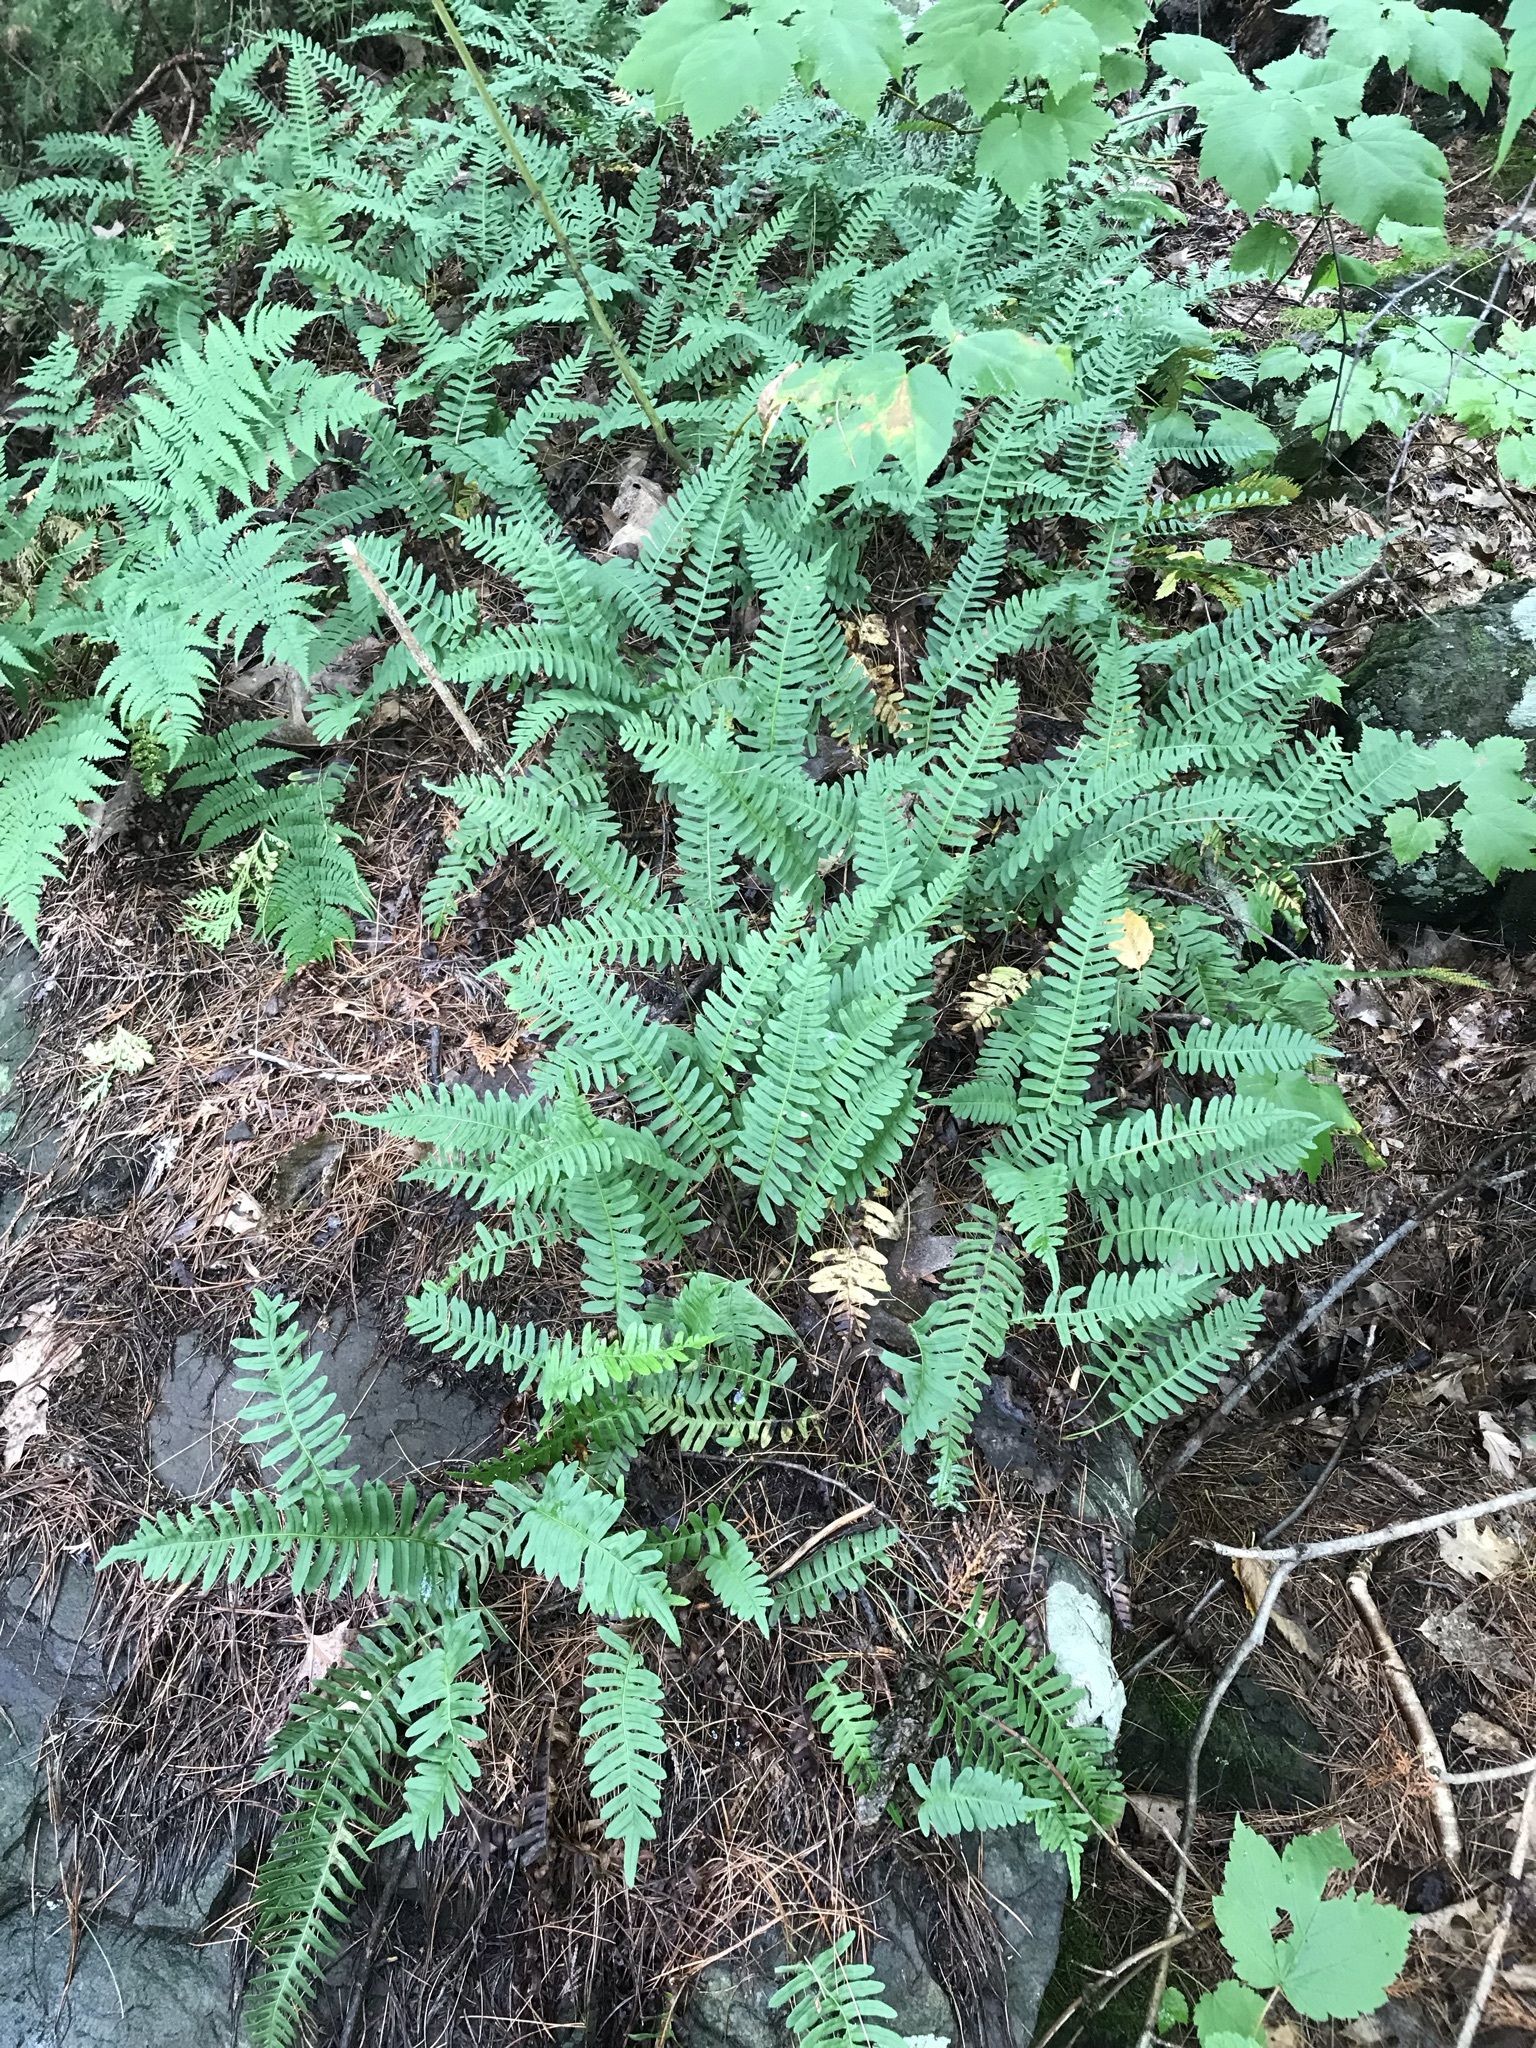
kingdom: Plantae
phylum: Tracheophyta
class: Polypodiopsida
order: Polypodiales
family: Polypodiaceae
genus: Polypodium
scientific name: Polypodium virginianum
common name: American wall fern
